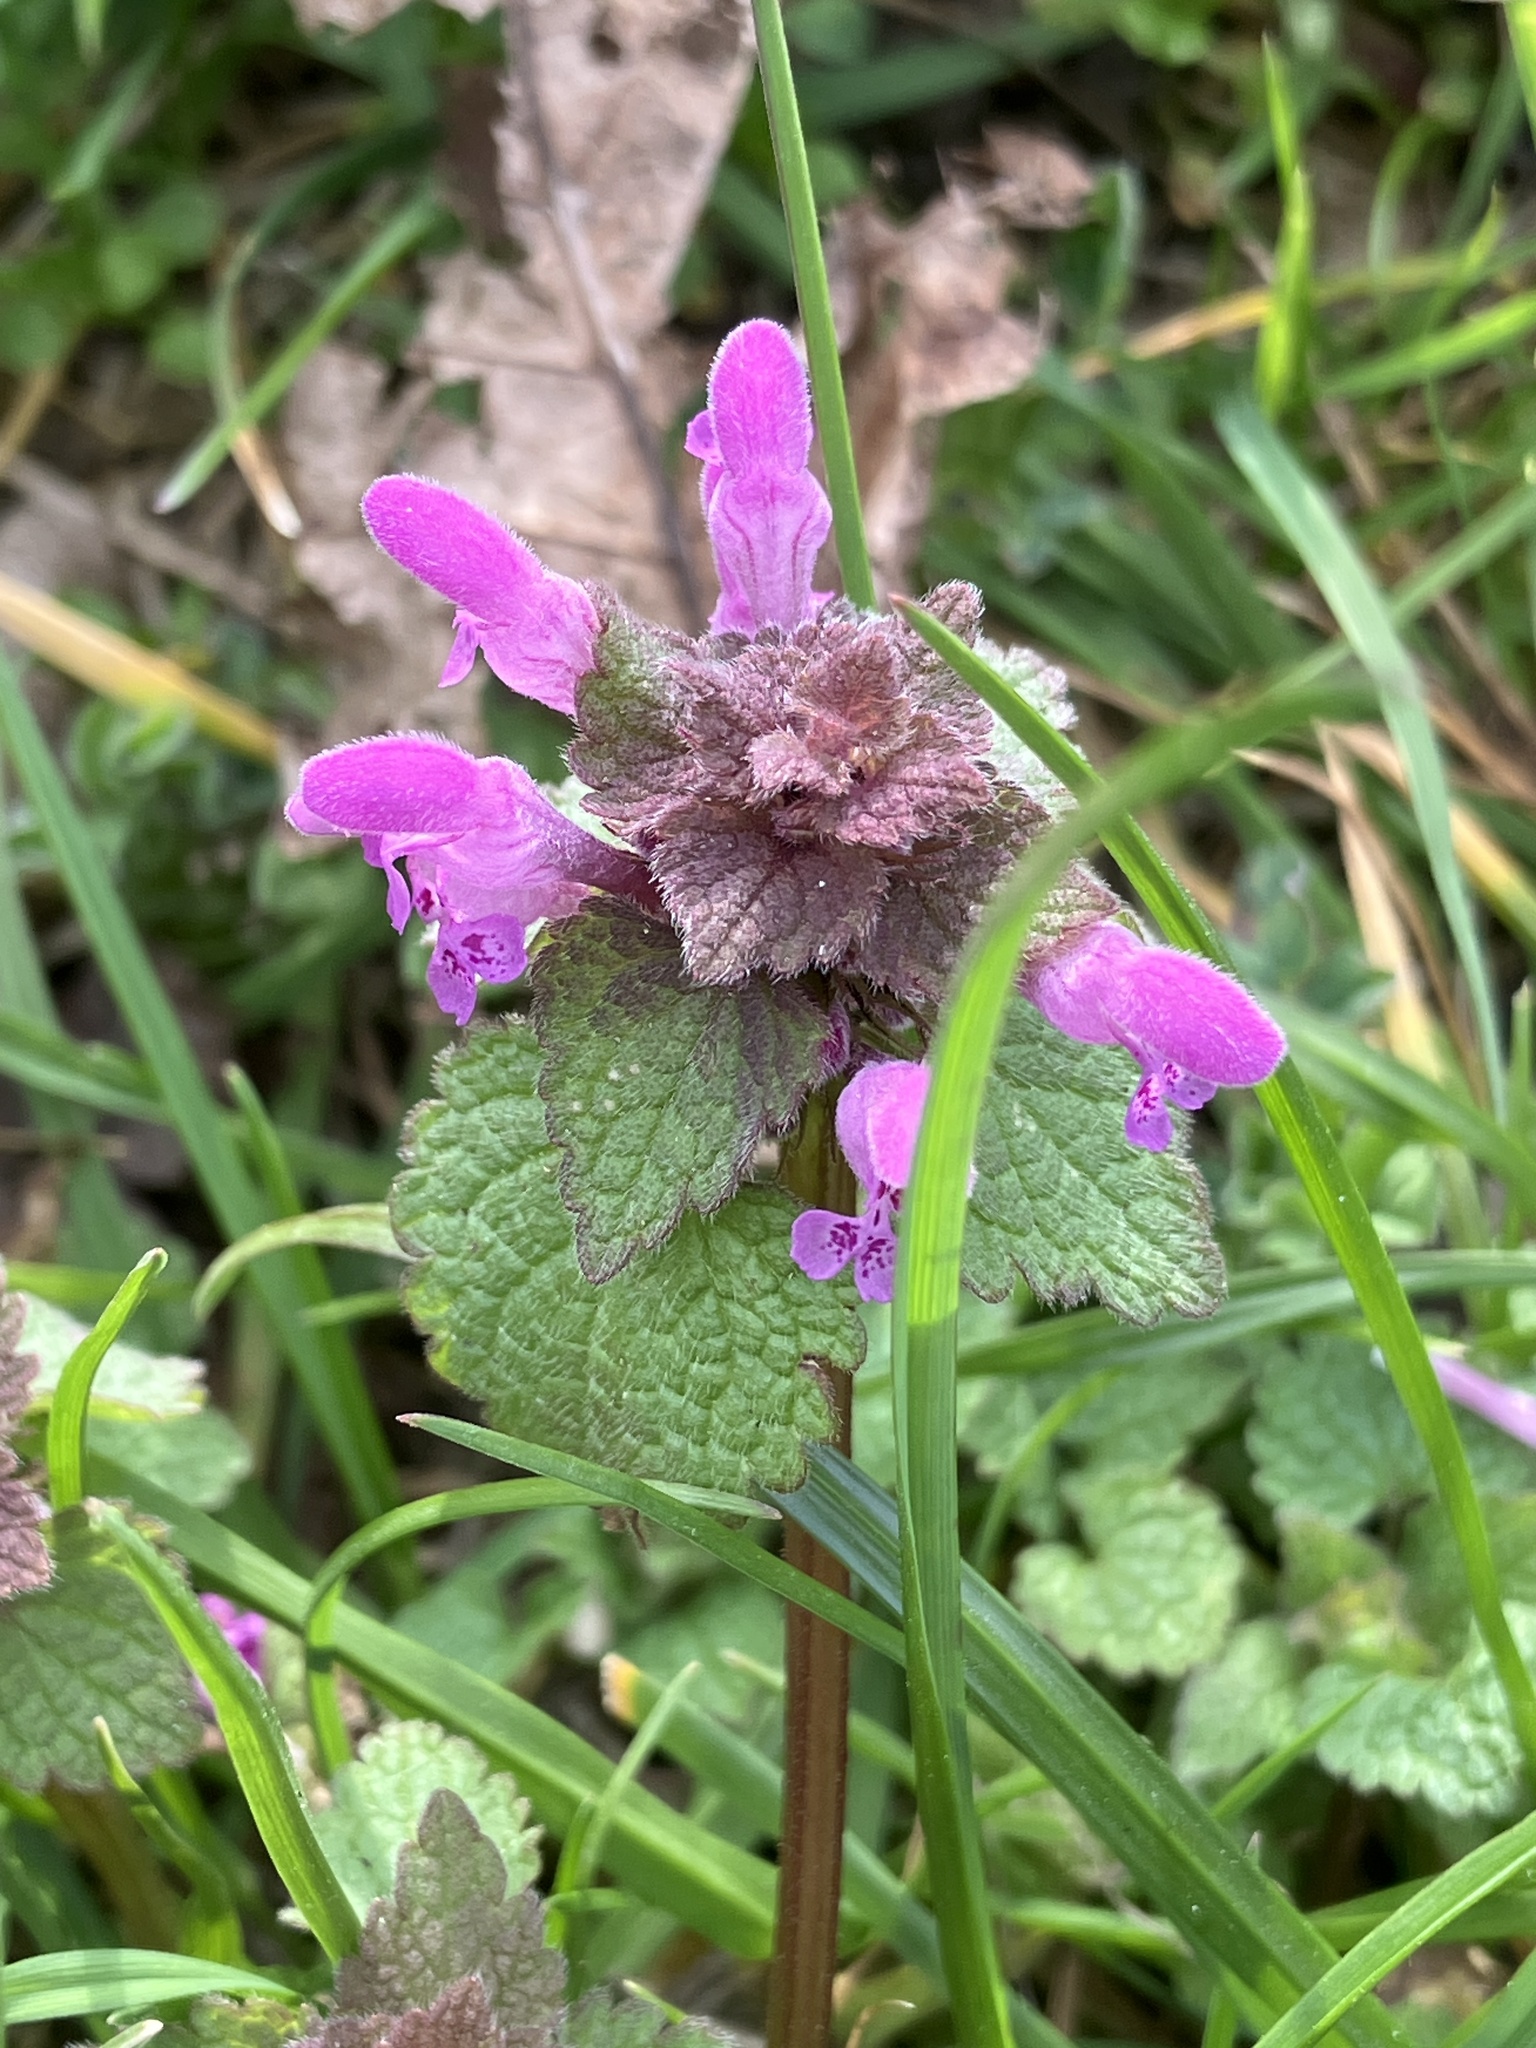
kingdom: Plantae
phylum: Tracheophyta
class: Magnoliopsida
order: Lamiales
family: Lamiaceae
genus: Lamium
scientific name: Lamium purpureum
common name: Red dead-nettle
